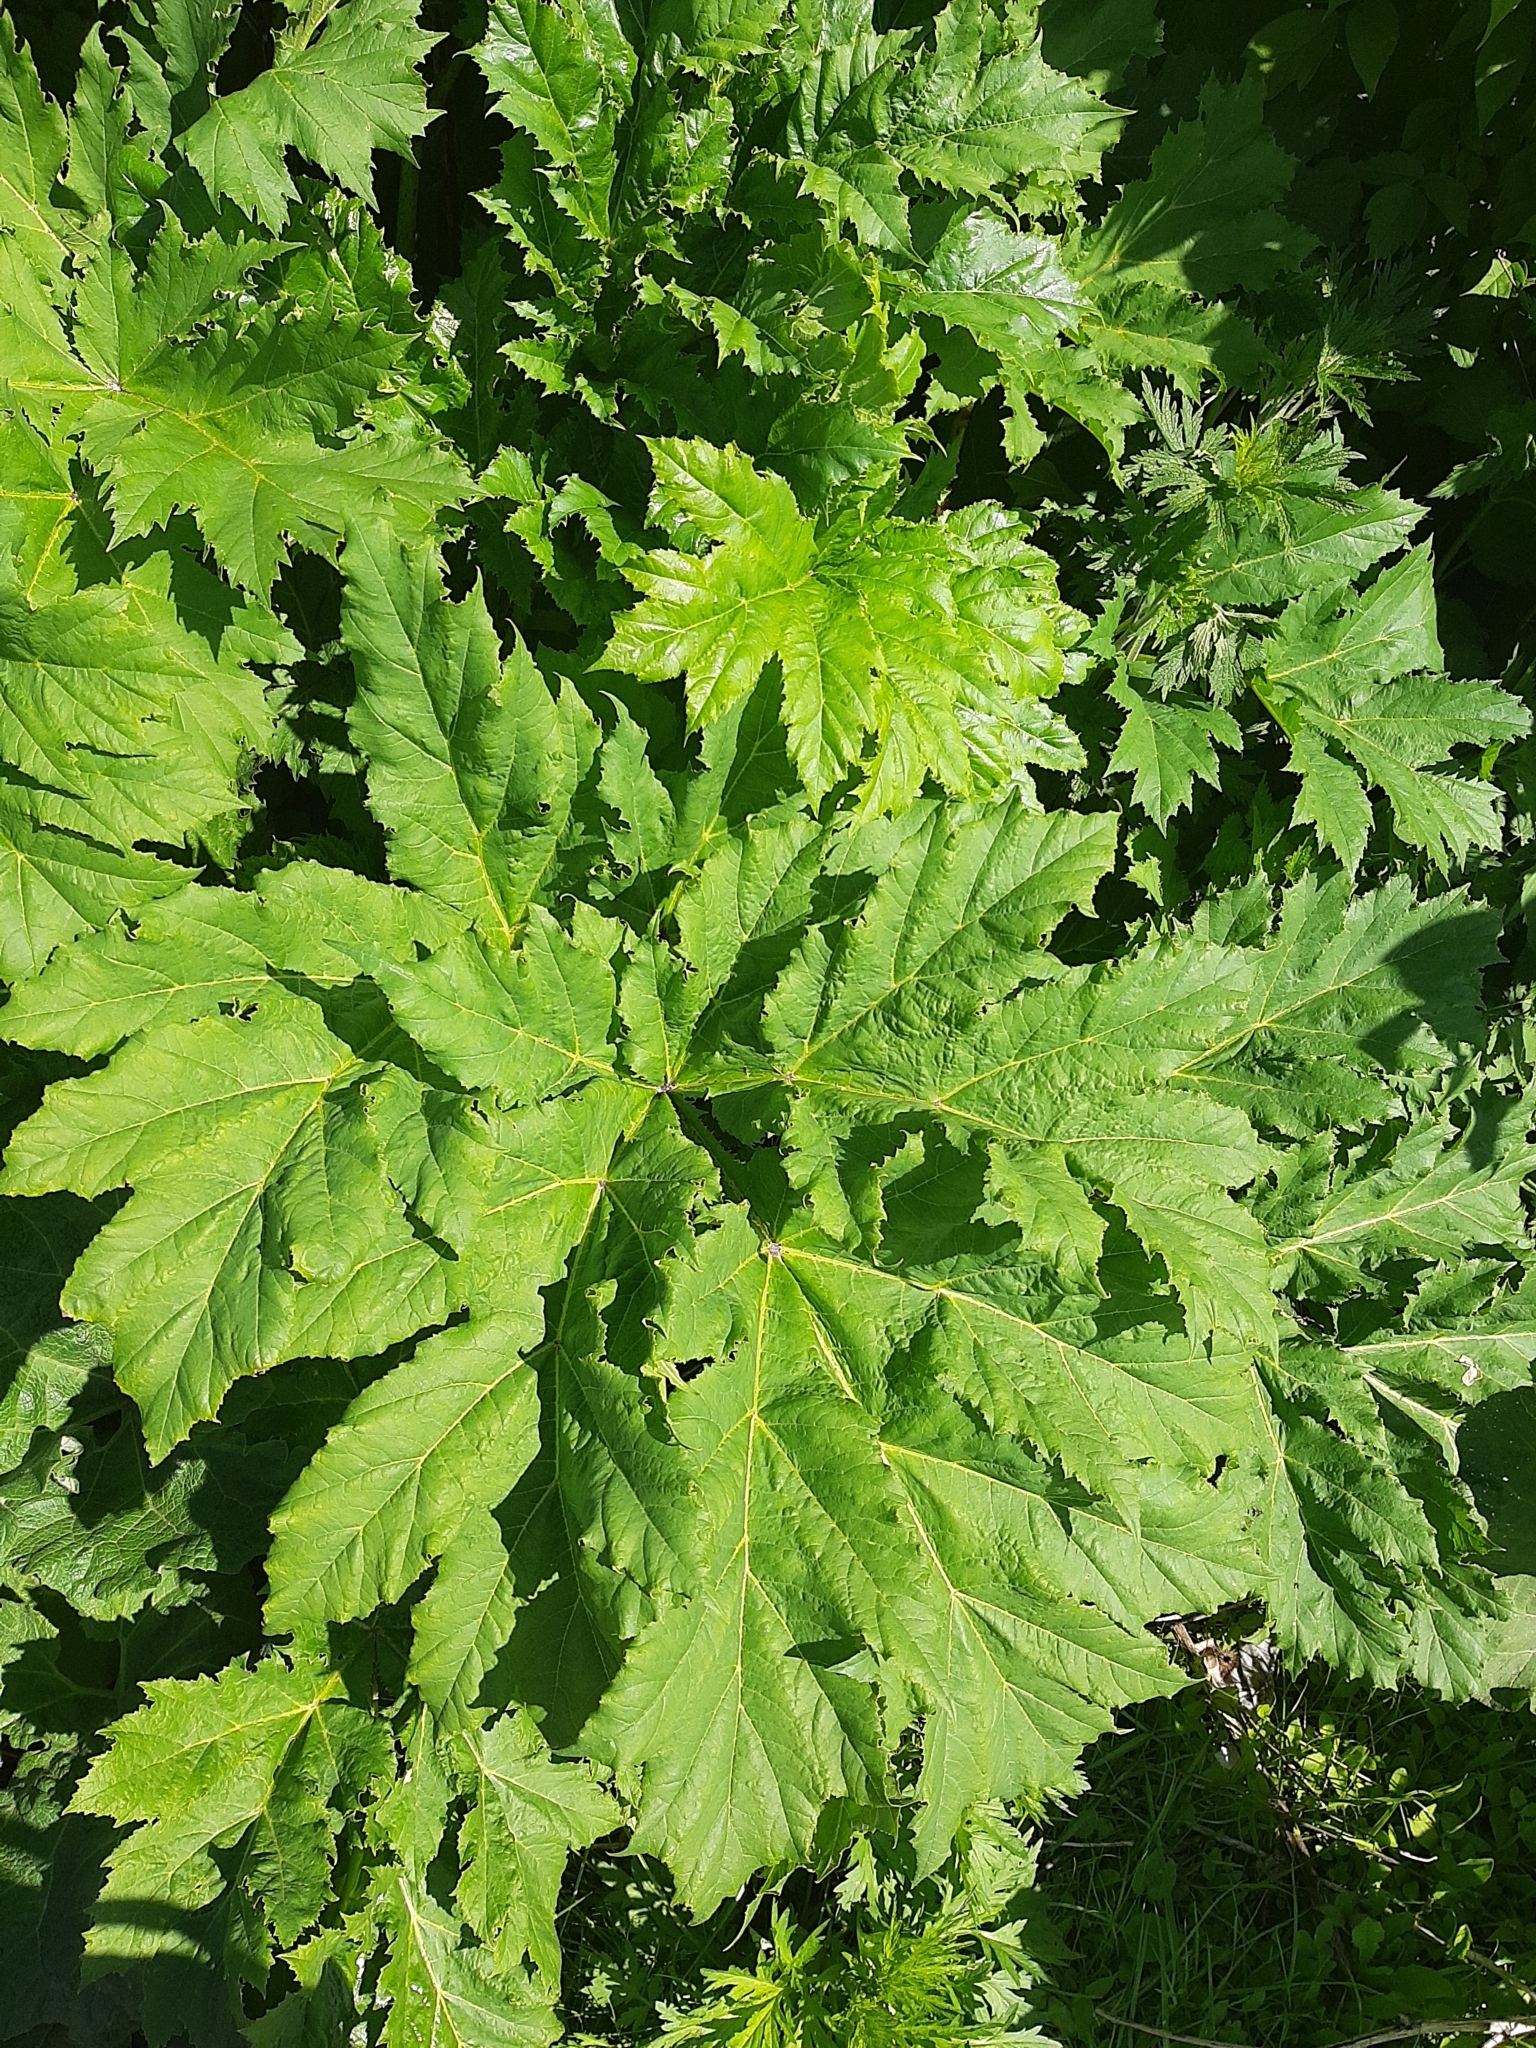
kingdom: Plantae
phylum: Tracheophyta
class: Magnoliopsida
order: Apiales
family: Apiaceae
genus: Heracleum
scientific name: Heracleum sosnowskyi
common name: Sosnowsky's hogweed
